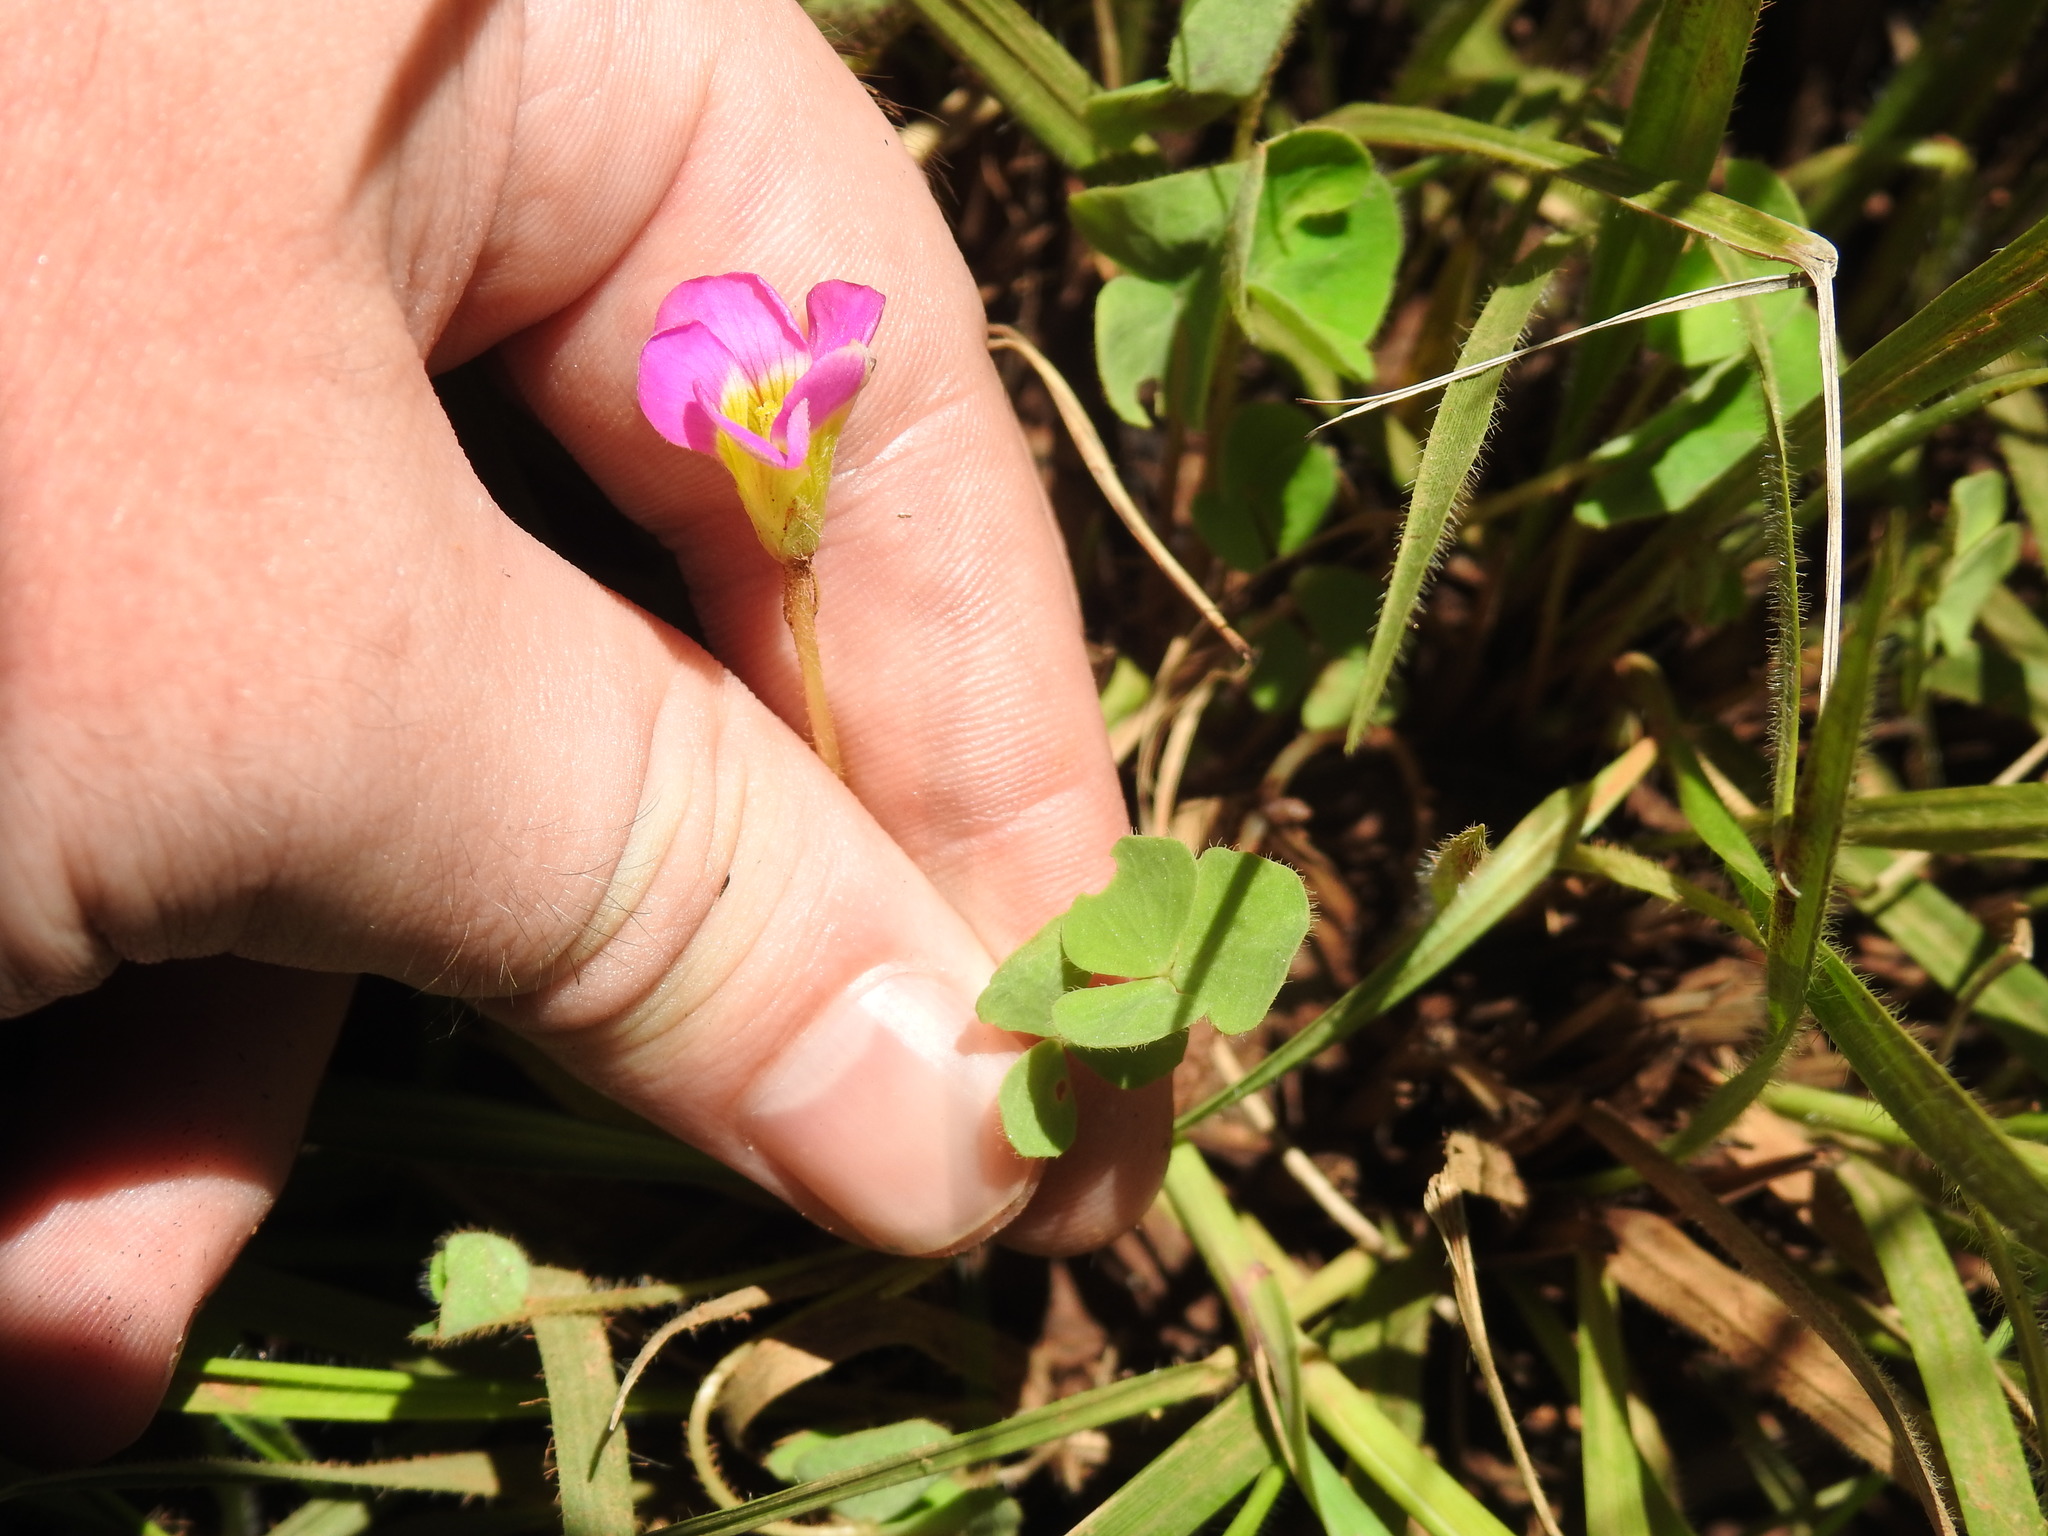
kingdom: Plantae
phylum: Tracheophyta
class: Magnoliopsida
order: Oxalidales
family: Oxalidaceae
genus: Oxalis
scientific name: Oxalis obliquifolia
